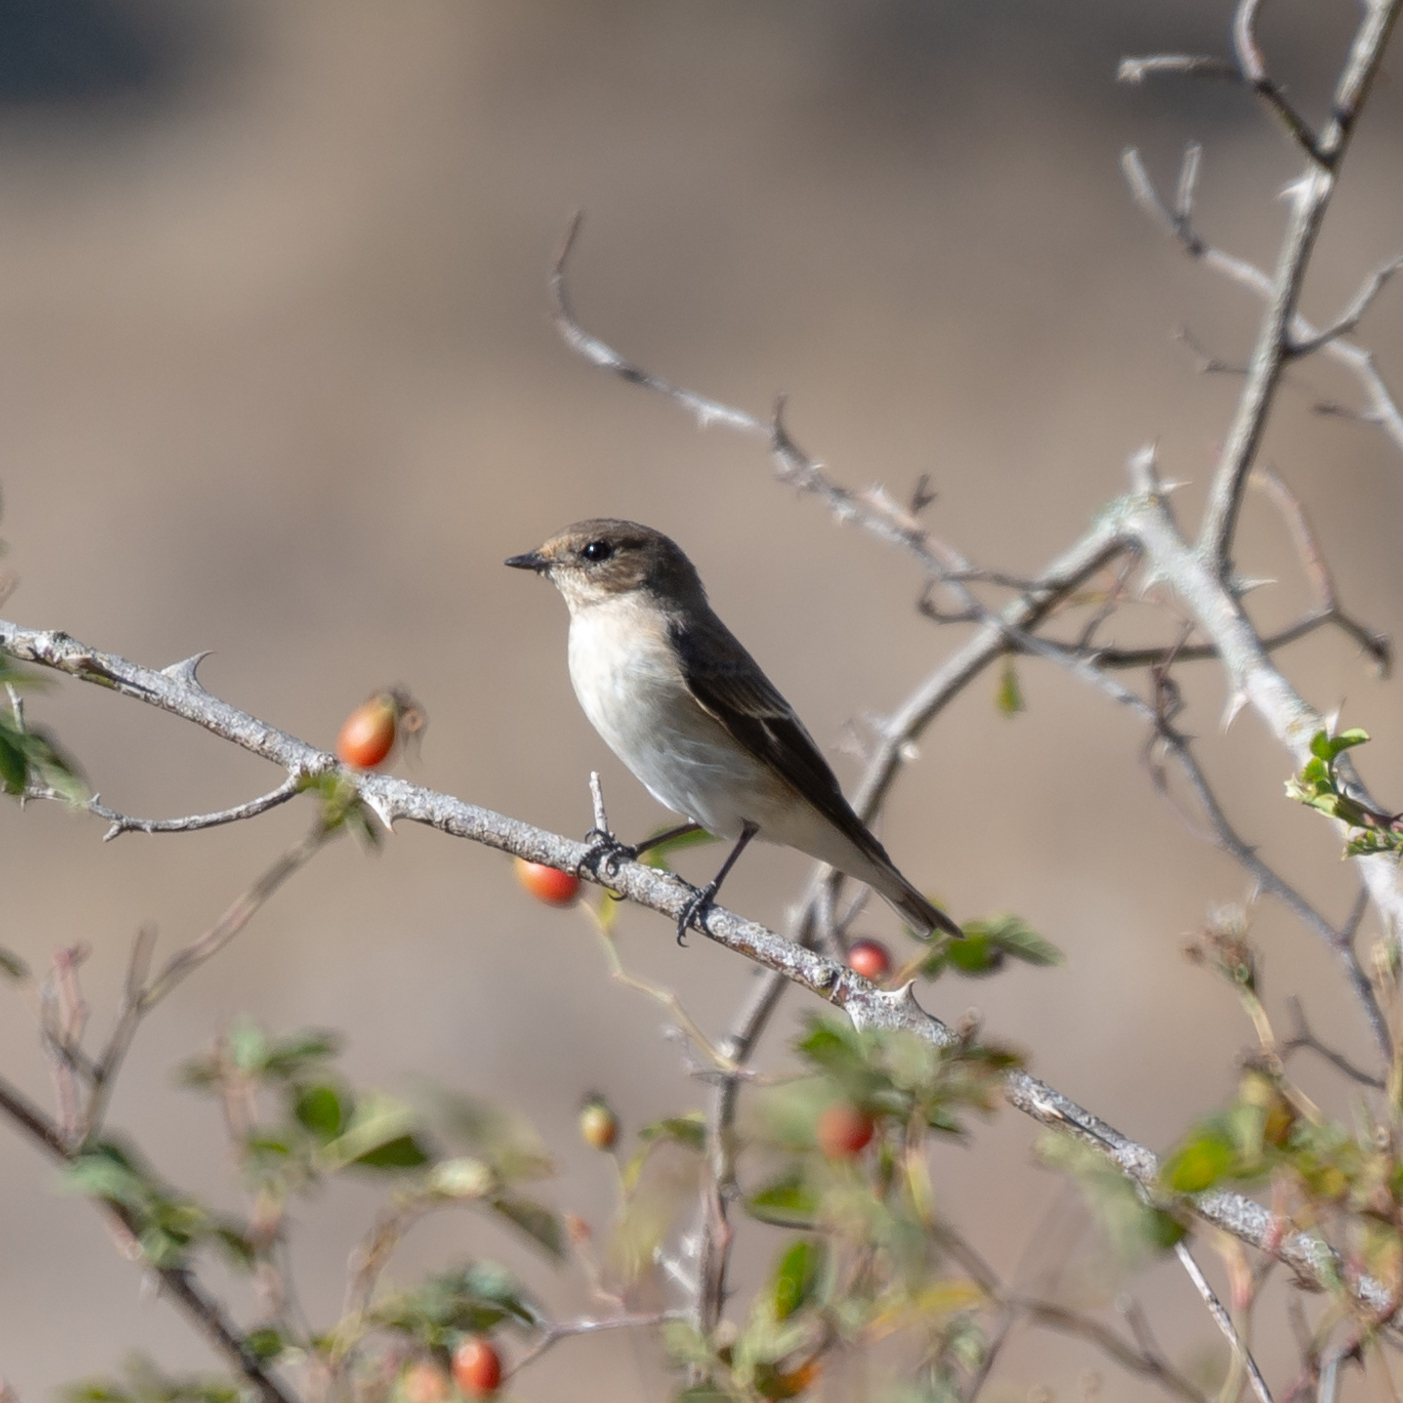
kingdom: Animalia
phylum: Chordata
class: Aves
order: Passeriformes
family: Muscicapidae
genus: Ficedula
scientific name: Ficedula hypoleuca
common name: European pied flycatcher
